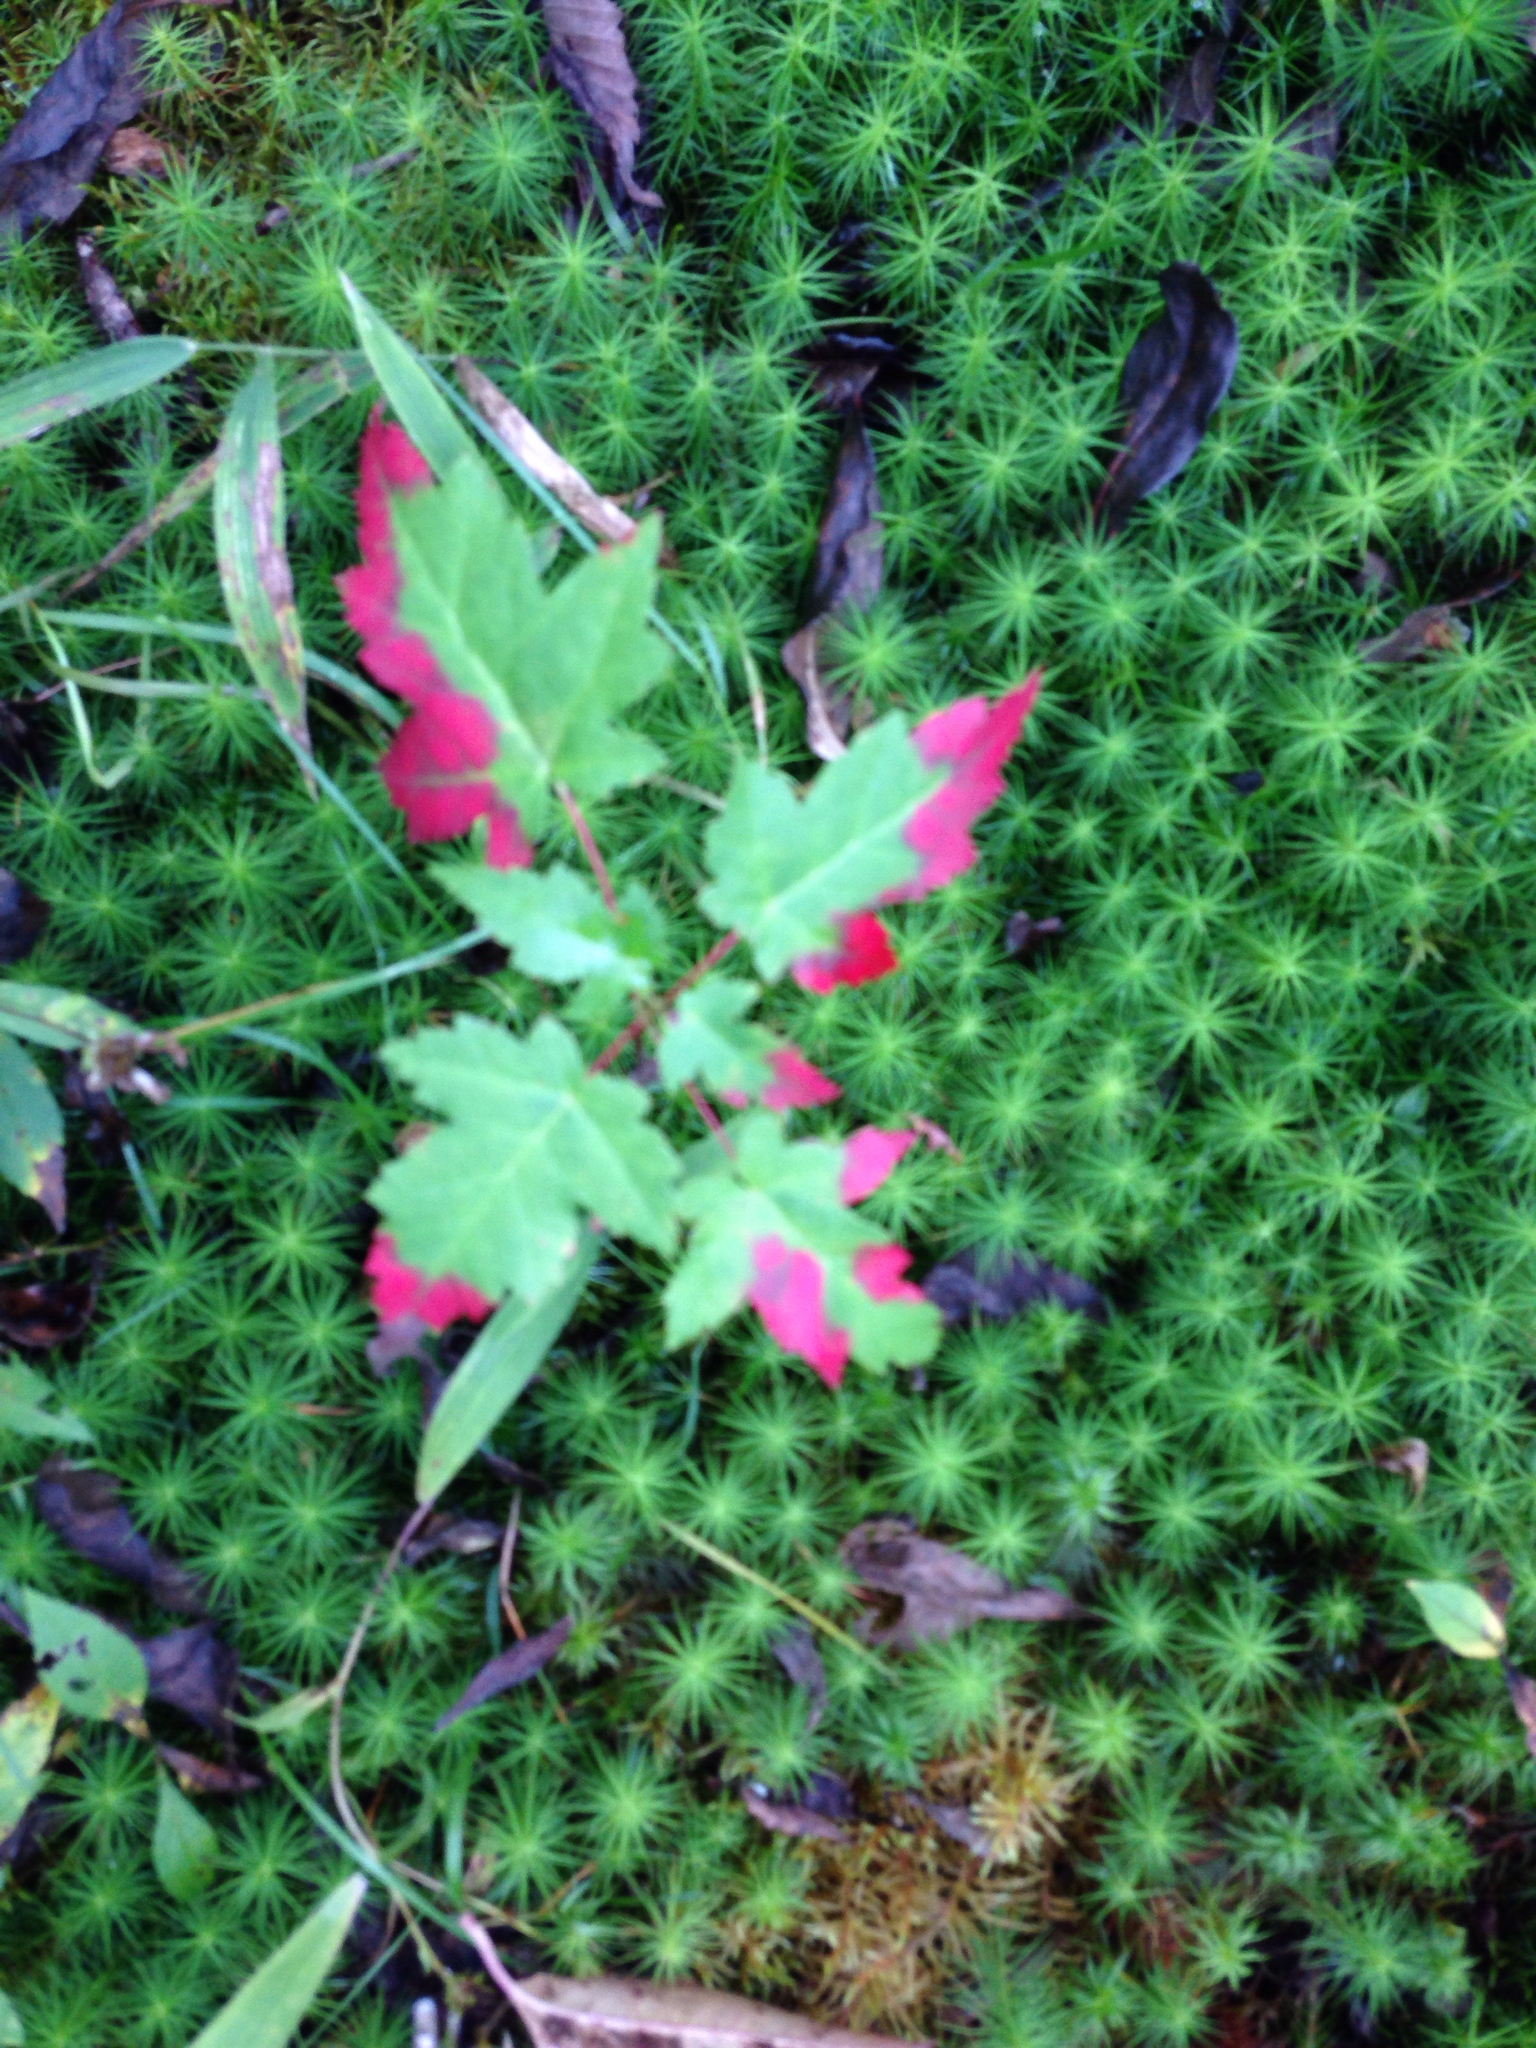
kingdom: Plantae
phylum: Tracheophyta
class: Magnoliopsida
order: Sapindales
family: Sapindaceae
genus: Acer
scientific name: Acer rubrum
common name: Red maple
